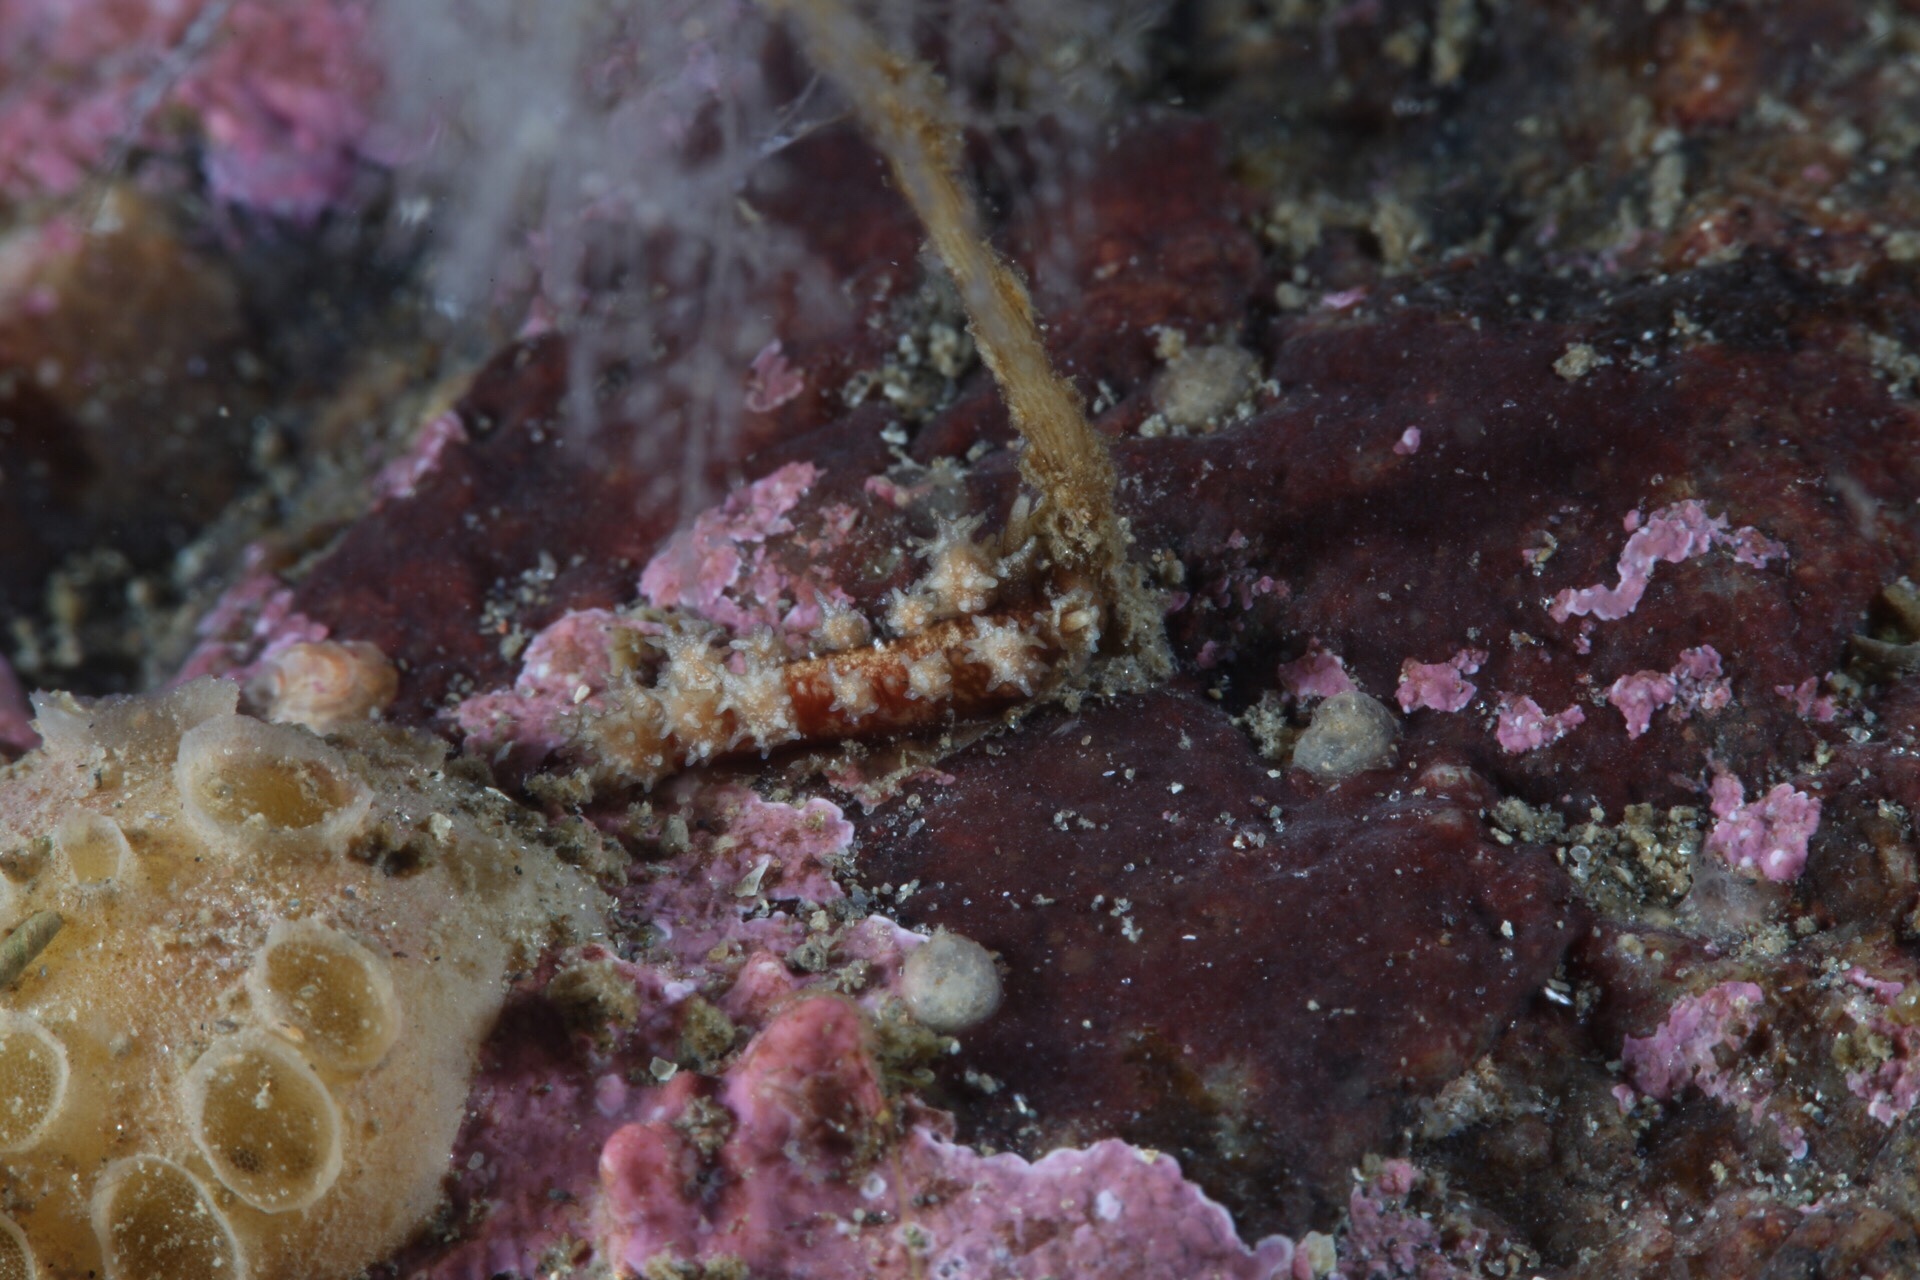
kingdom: Animalia
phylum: Mollusca
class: Gastropoda
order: Nudibranchia
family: Dotidae
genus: Doto
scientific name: Doto hystrix
